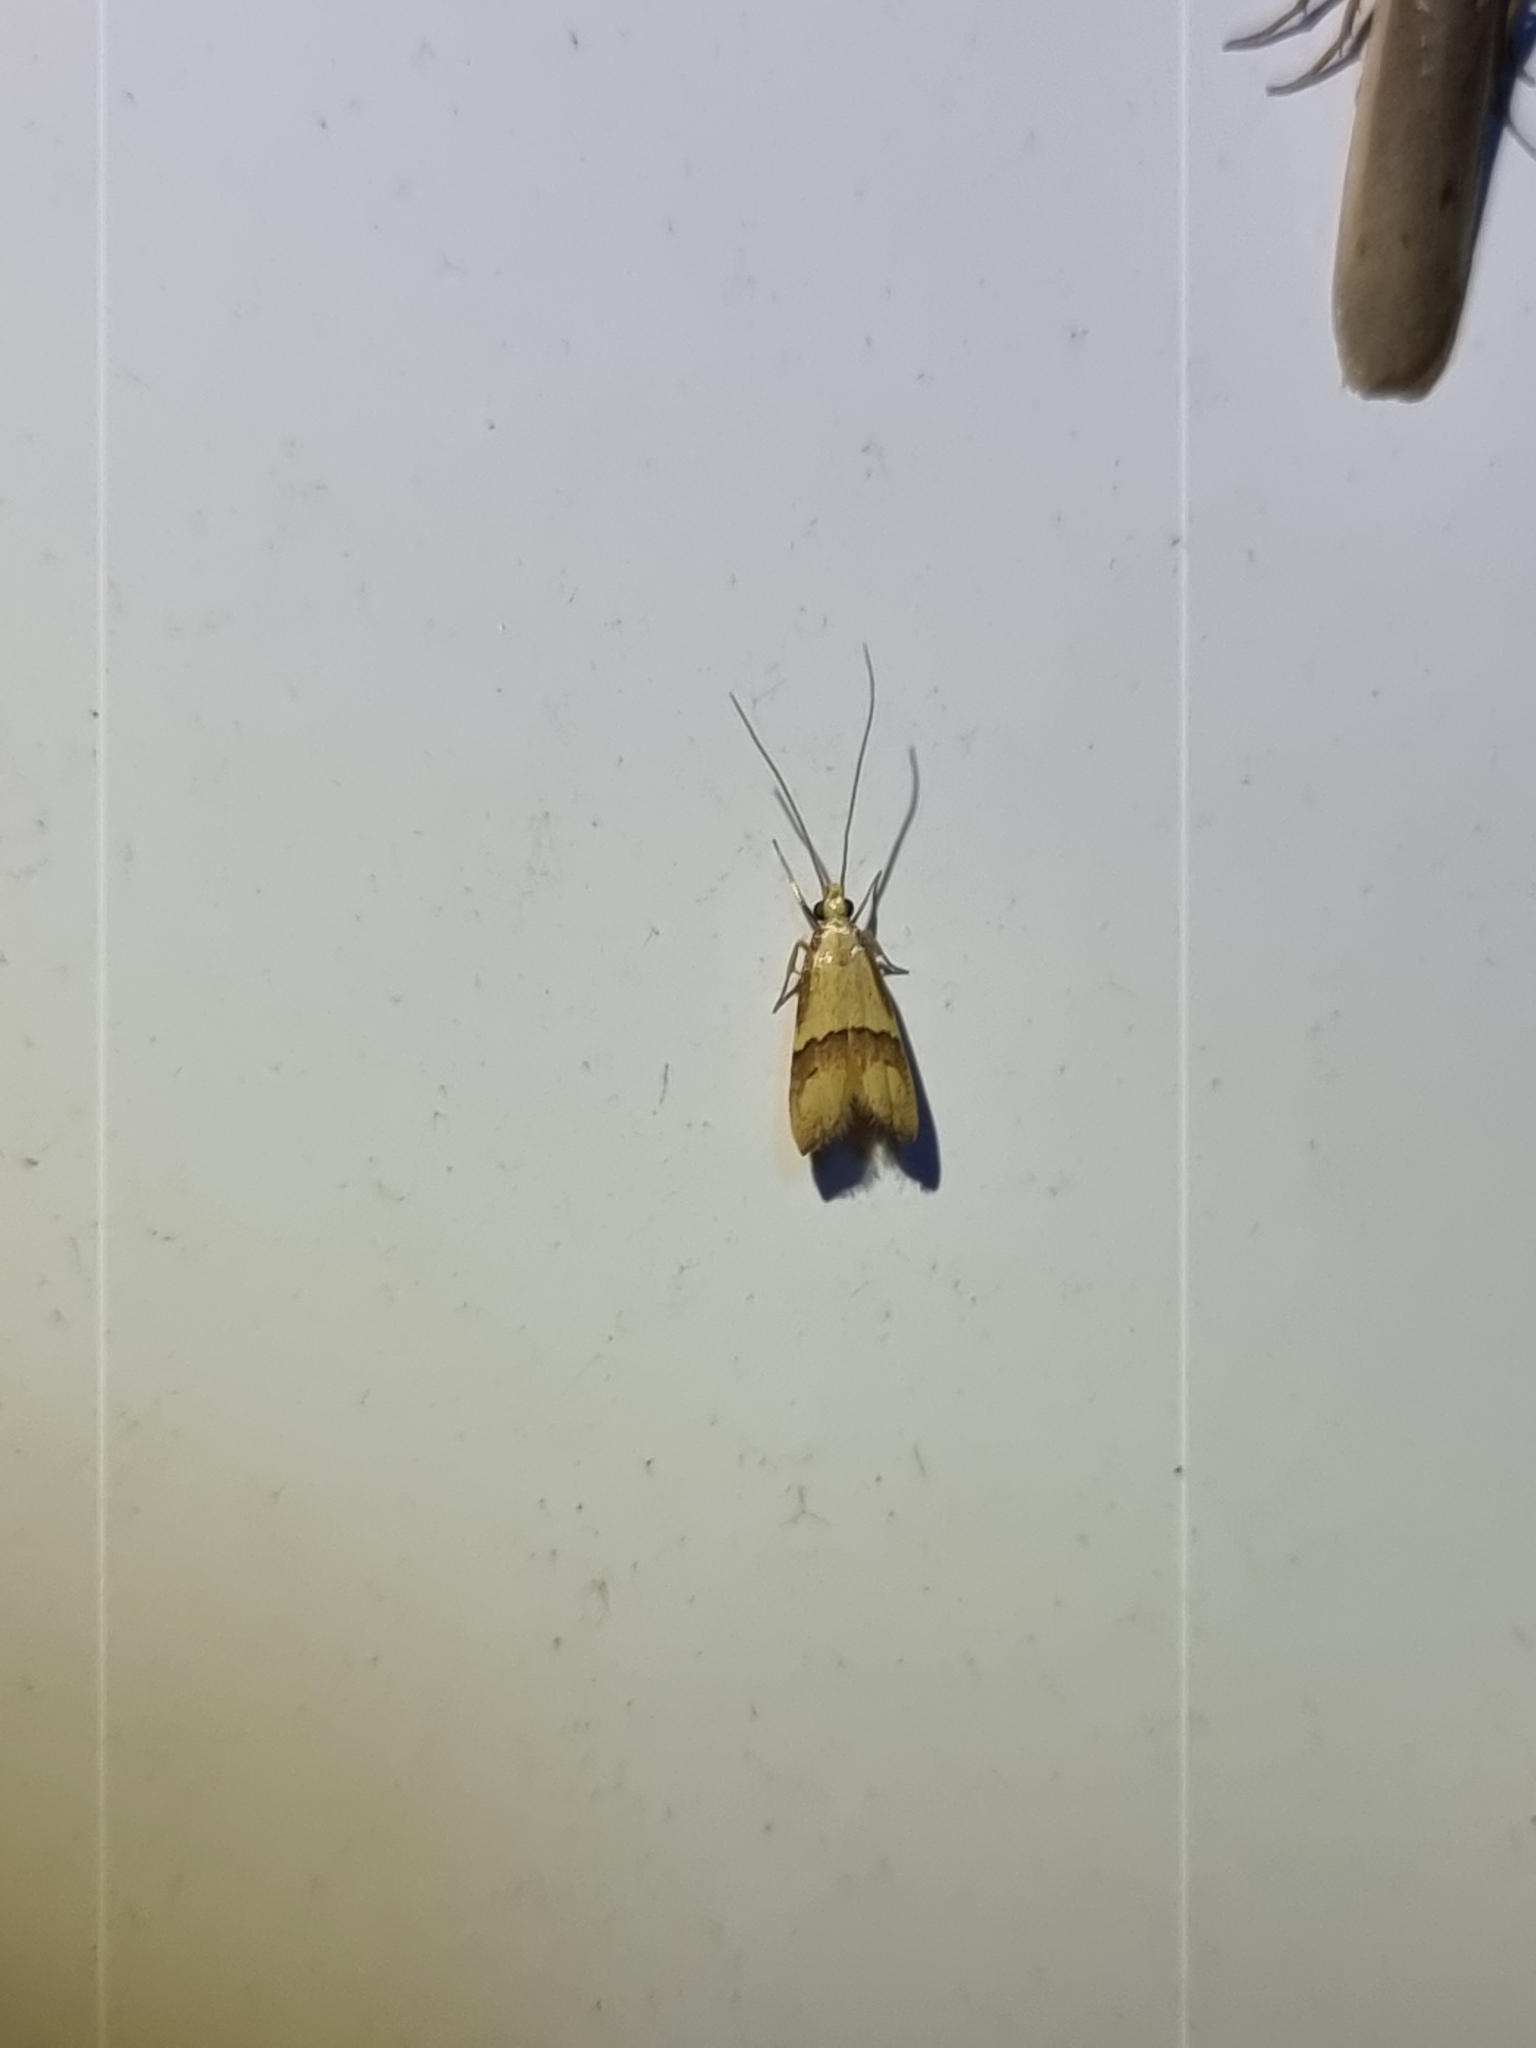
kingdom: Animalia
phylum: Arthropoda
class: Insecta
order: Lepidoptera
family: Lecithoceridae
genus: Crocanthes
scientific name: Crocanthes prasinopis
